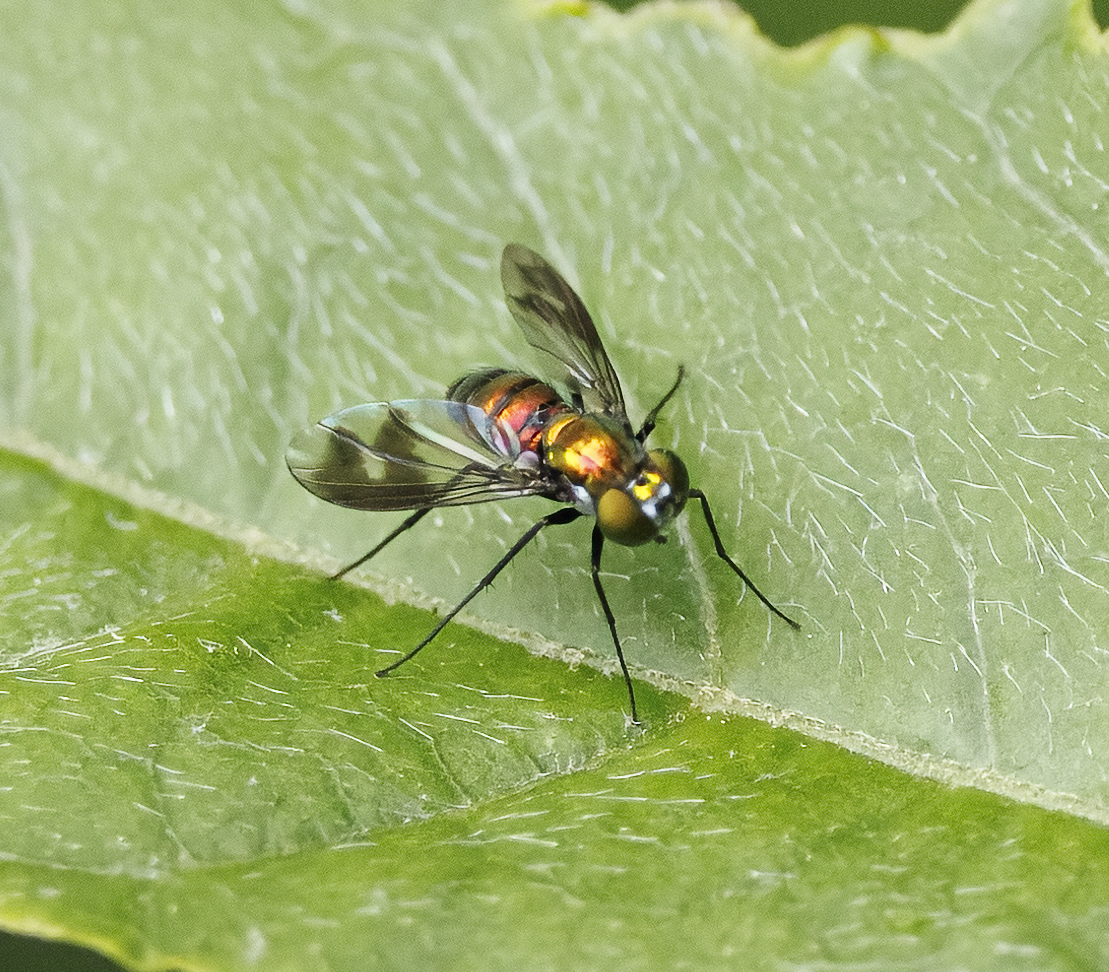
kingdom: Animalia
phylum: Arthropoda
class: Insecta
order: Diptera
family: Dolichopodidae
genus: Condylostylus
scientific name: Condylostylus patibulatus
